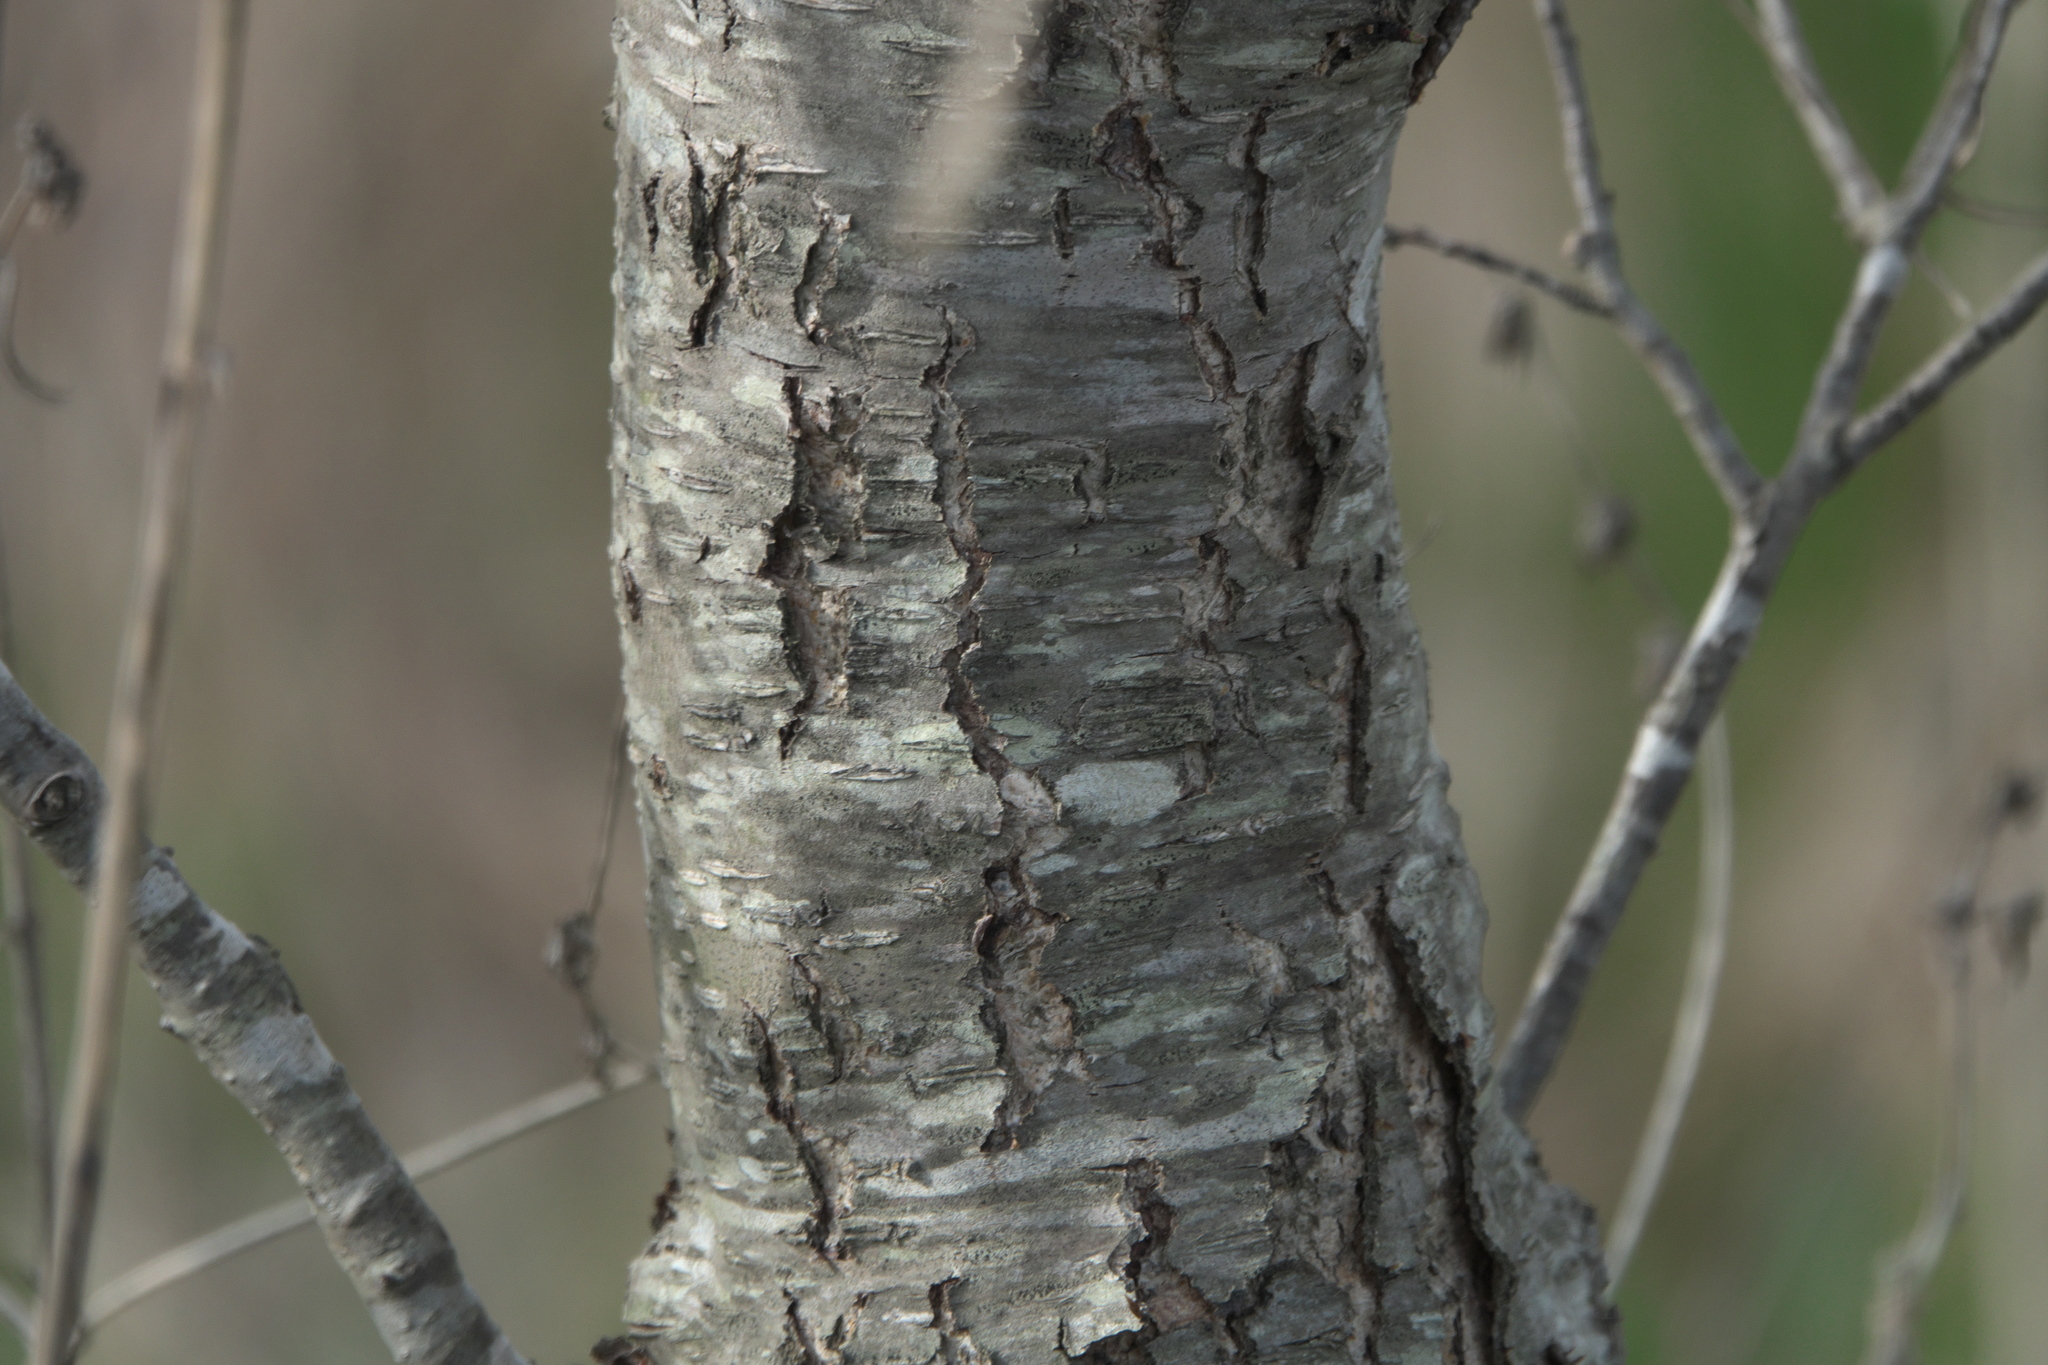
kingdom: Plantae
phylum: Tracheophyta
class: Magnoliopsida
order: Rosales
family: Rosaceae
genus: Prunus
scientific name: Prunus serotina
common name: Black cherry
